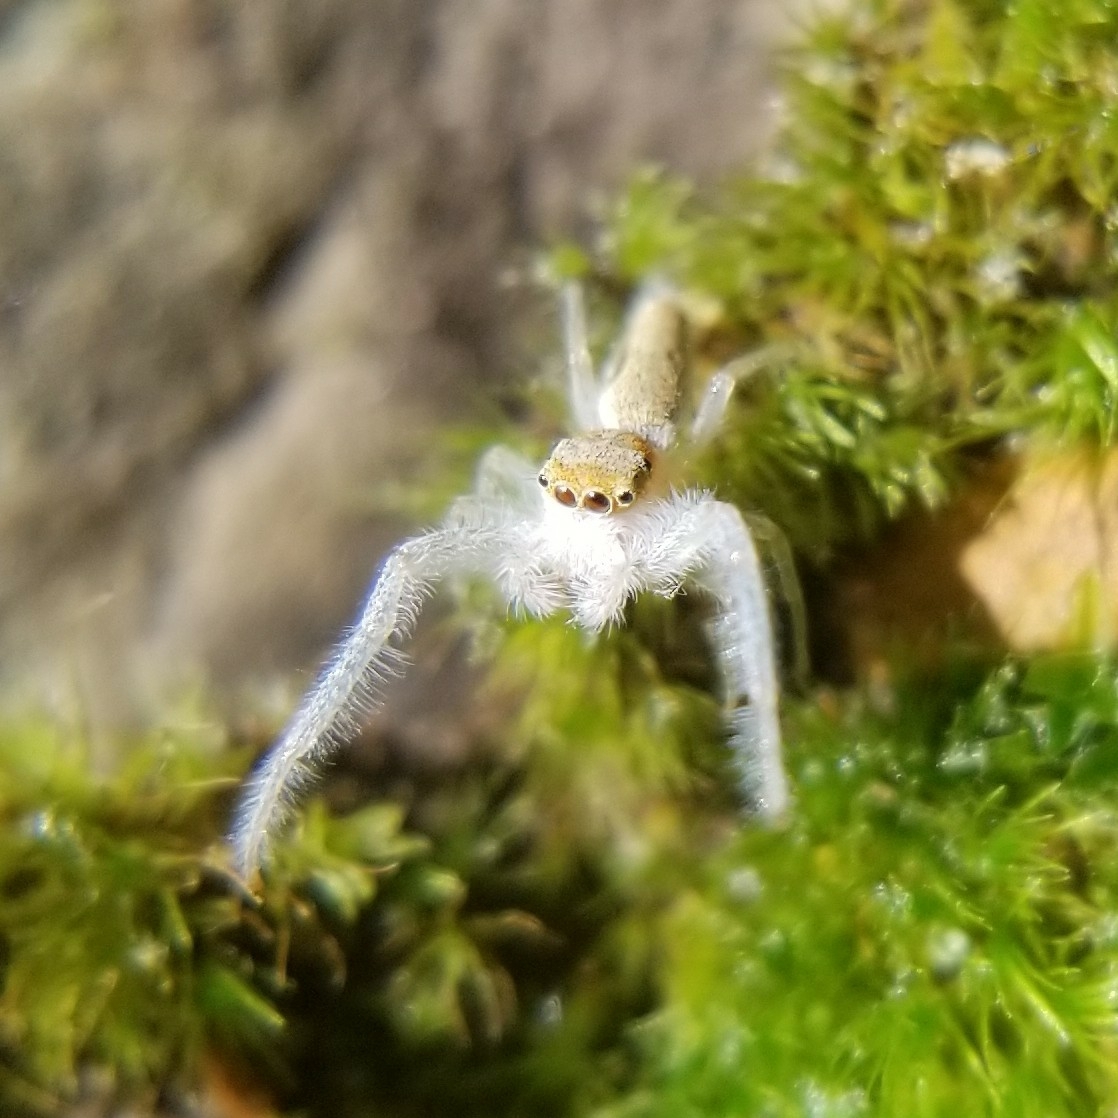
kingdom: Animalia
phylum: Arthropoda
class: Arachnida
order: Araneae
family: Salticidae
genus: Hentzia
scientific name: Hentzia mitrata
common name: White-jawed jumping spider
